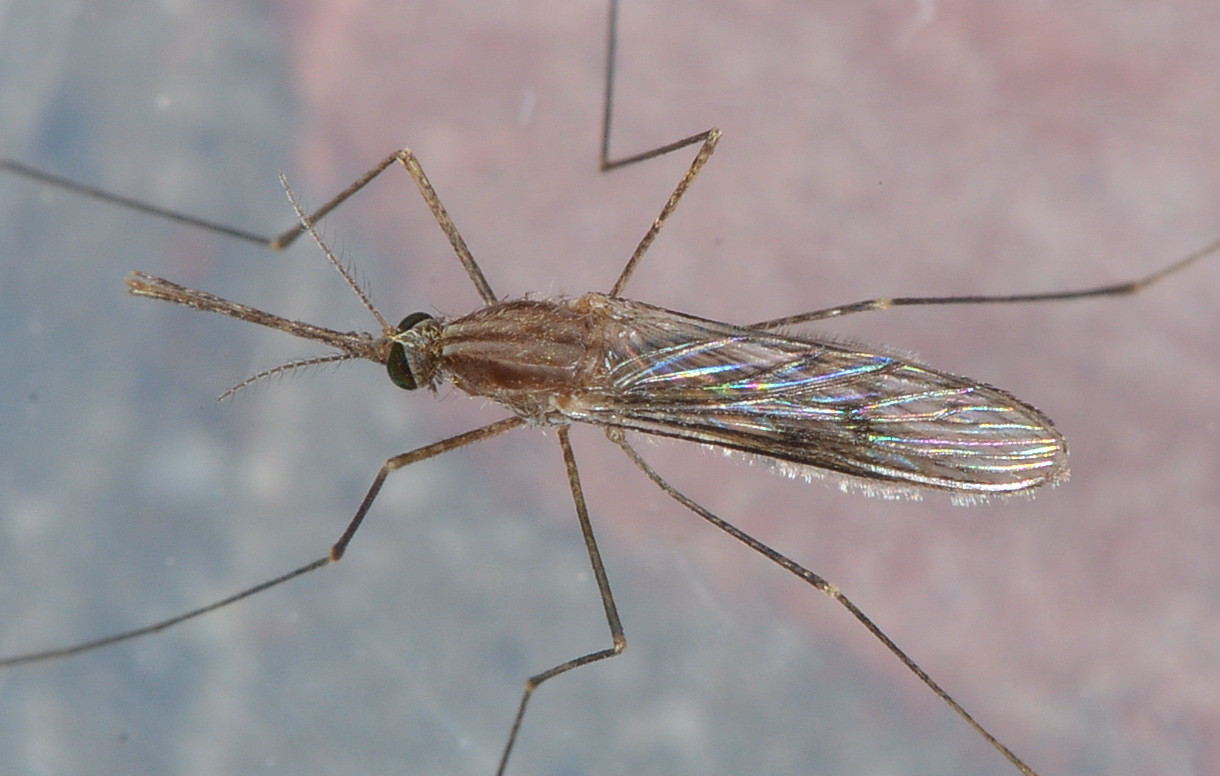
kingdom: Animalia
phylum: Arthropoda
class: Insecta
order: Diptera
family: Culicidae
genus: Anopheles
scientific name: Anopheles freeborni
